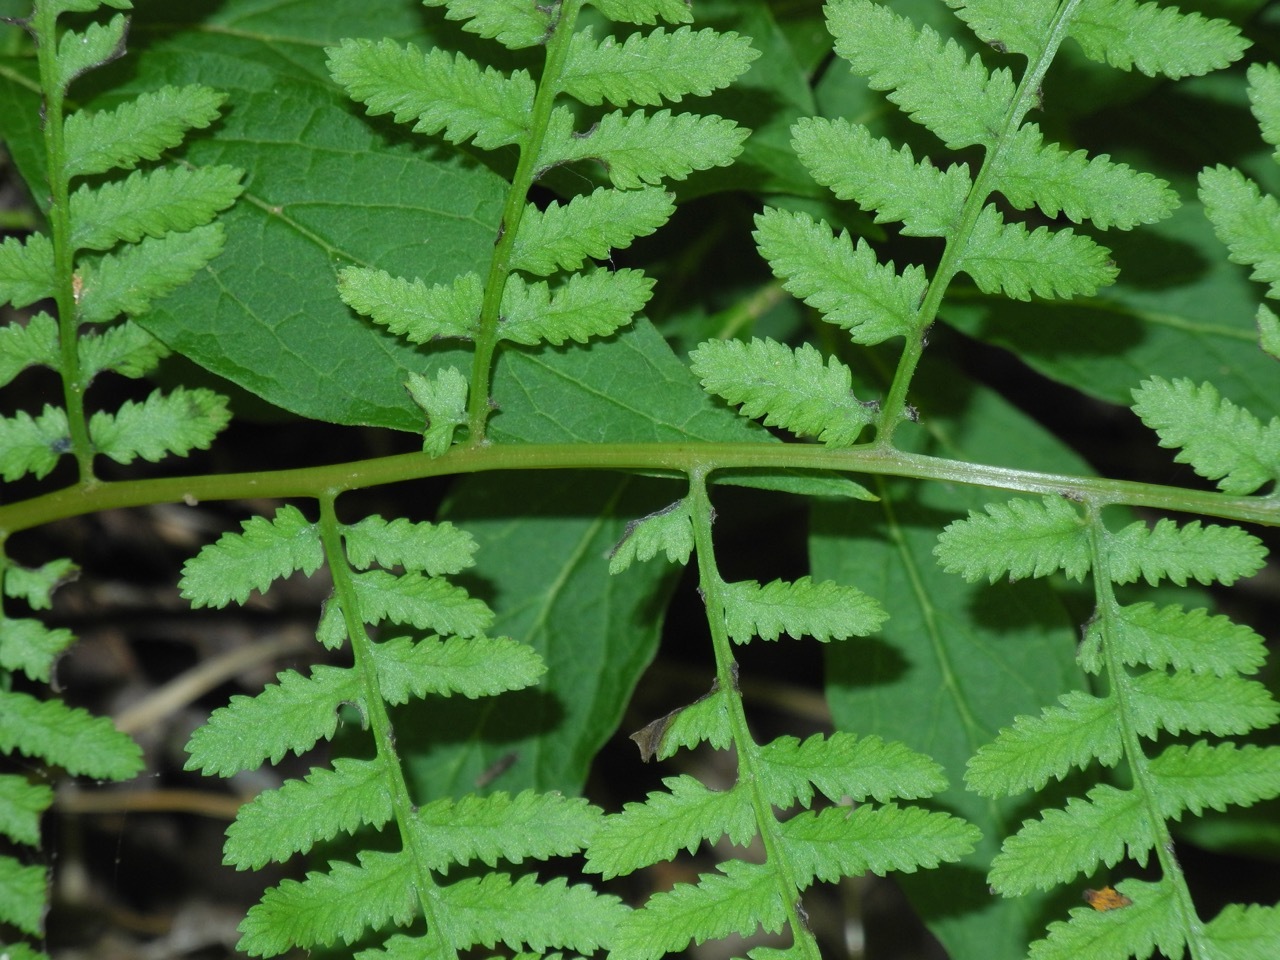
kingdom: Plantae
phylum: Tracheophyta
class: Polypodiopsida
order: Polypodiales
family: Athyriaceae
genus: Athyrium
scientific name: Athyrium asplenioides
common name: Southern lady fern
